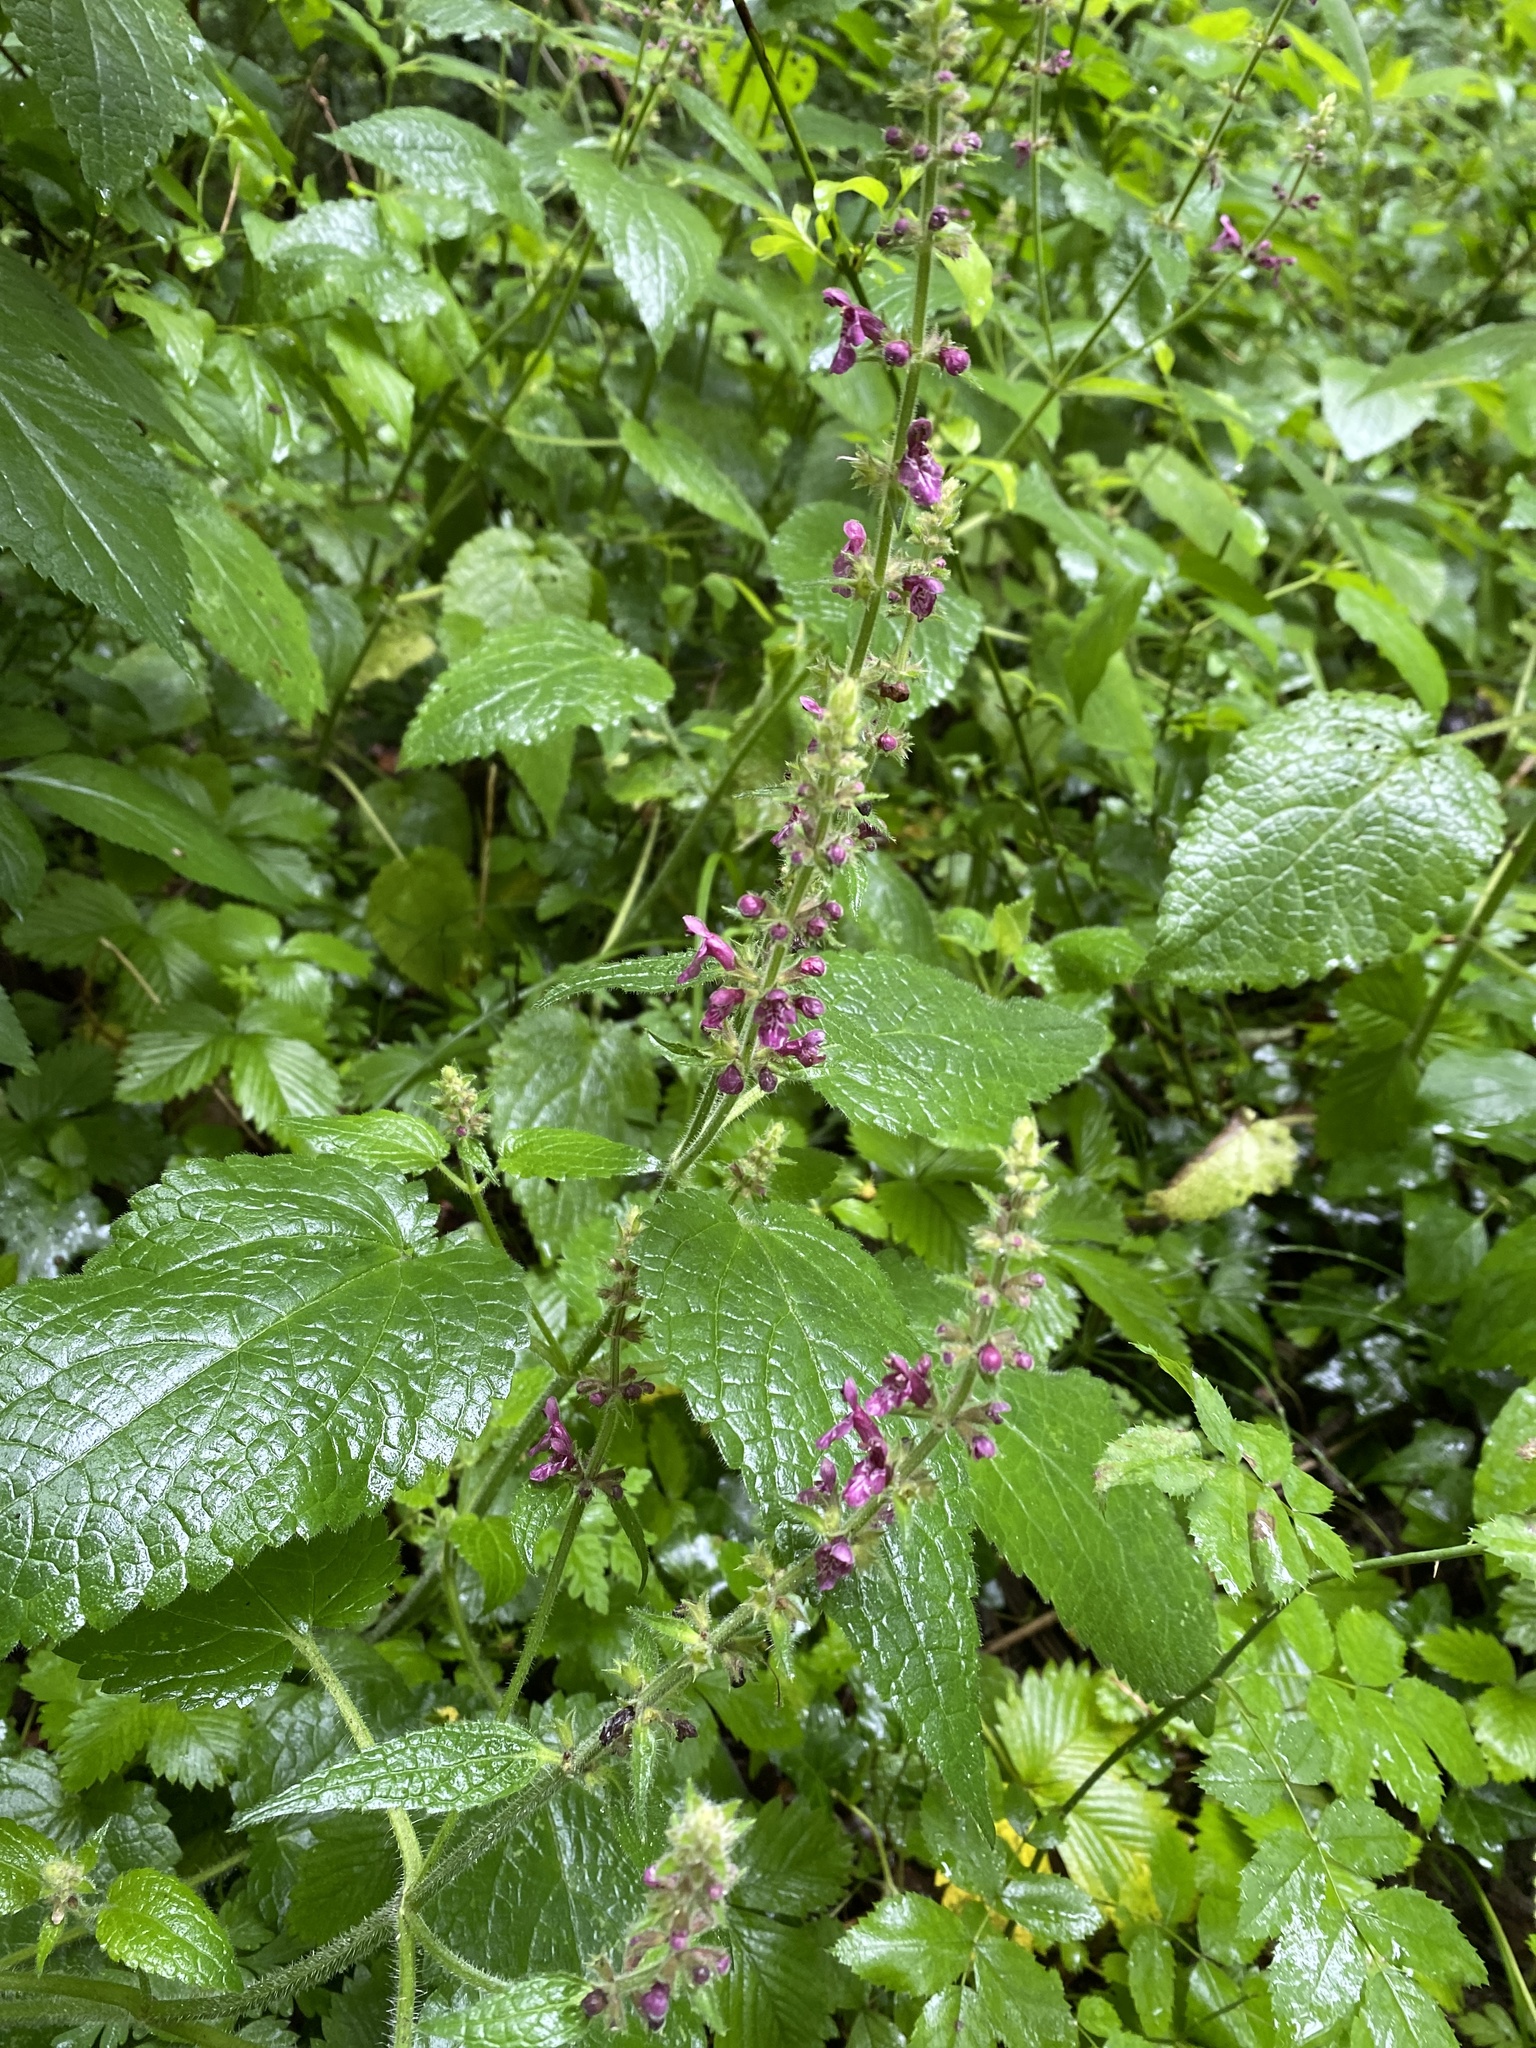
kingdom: Plantae
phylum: Tracheophyta
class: Magnoliopsida
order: Lamiales
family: Lamiaceae
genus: Stachys
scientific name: Stachys sylvatica
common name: Hedge woundwort
